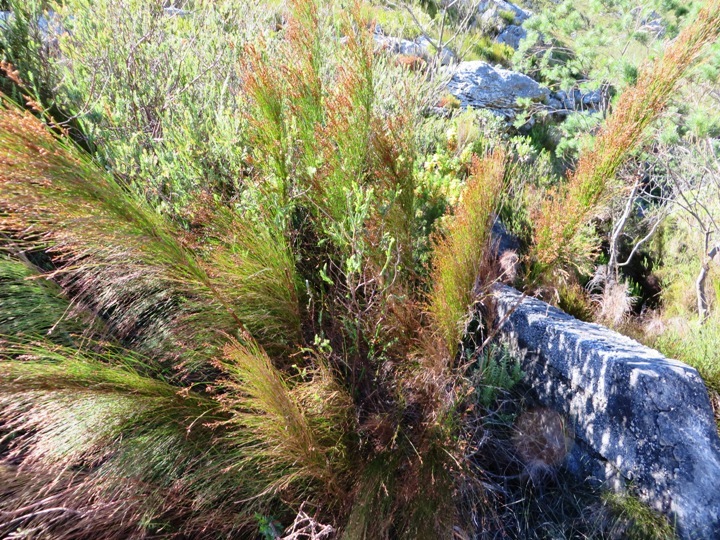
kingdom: Plantae
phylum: Tracheophyta
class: Liliopsida
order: Poales
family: Restionaceae
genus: Restio
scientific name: Restio subverticillatus
